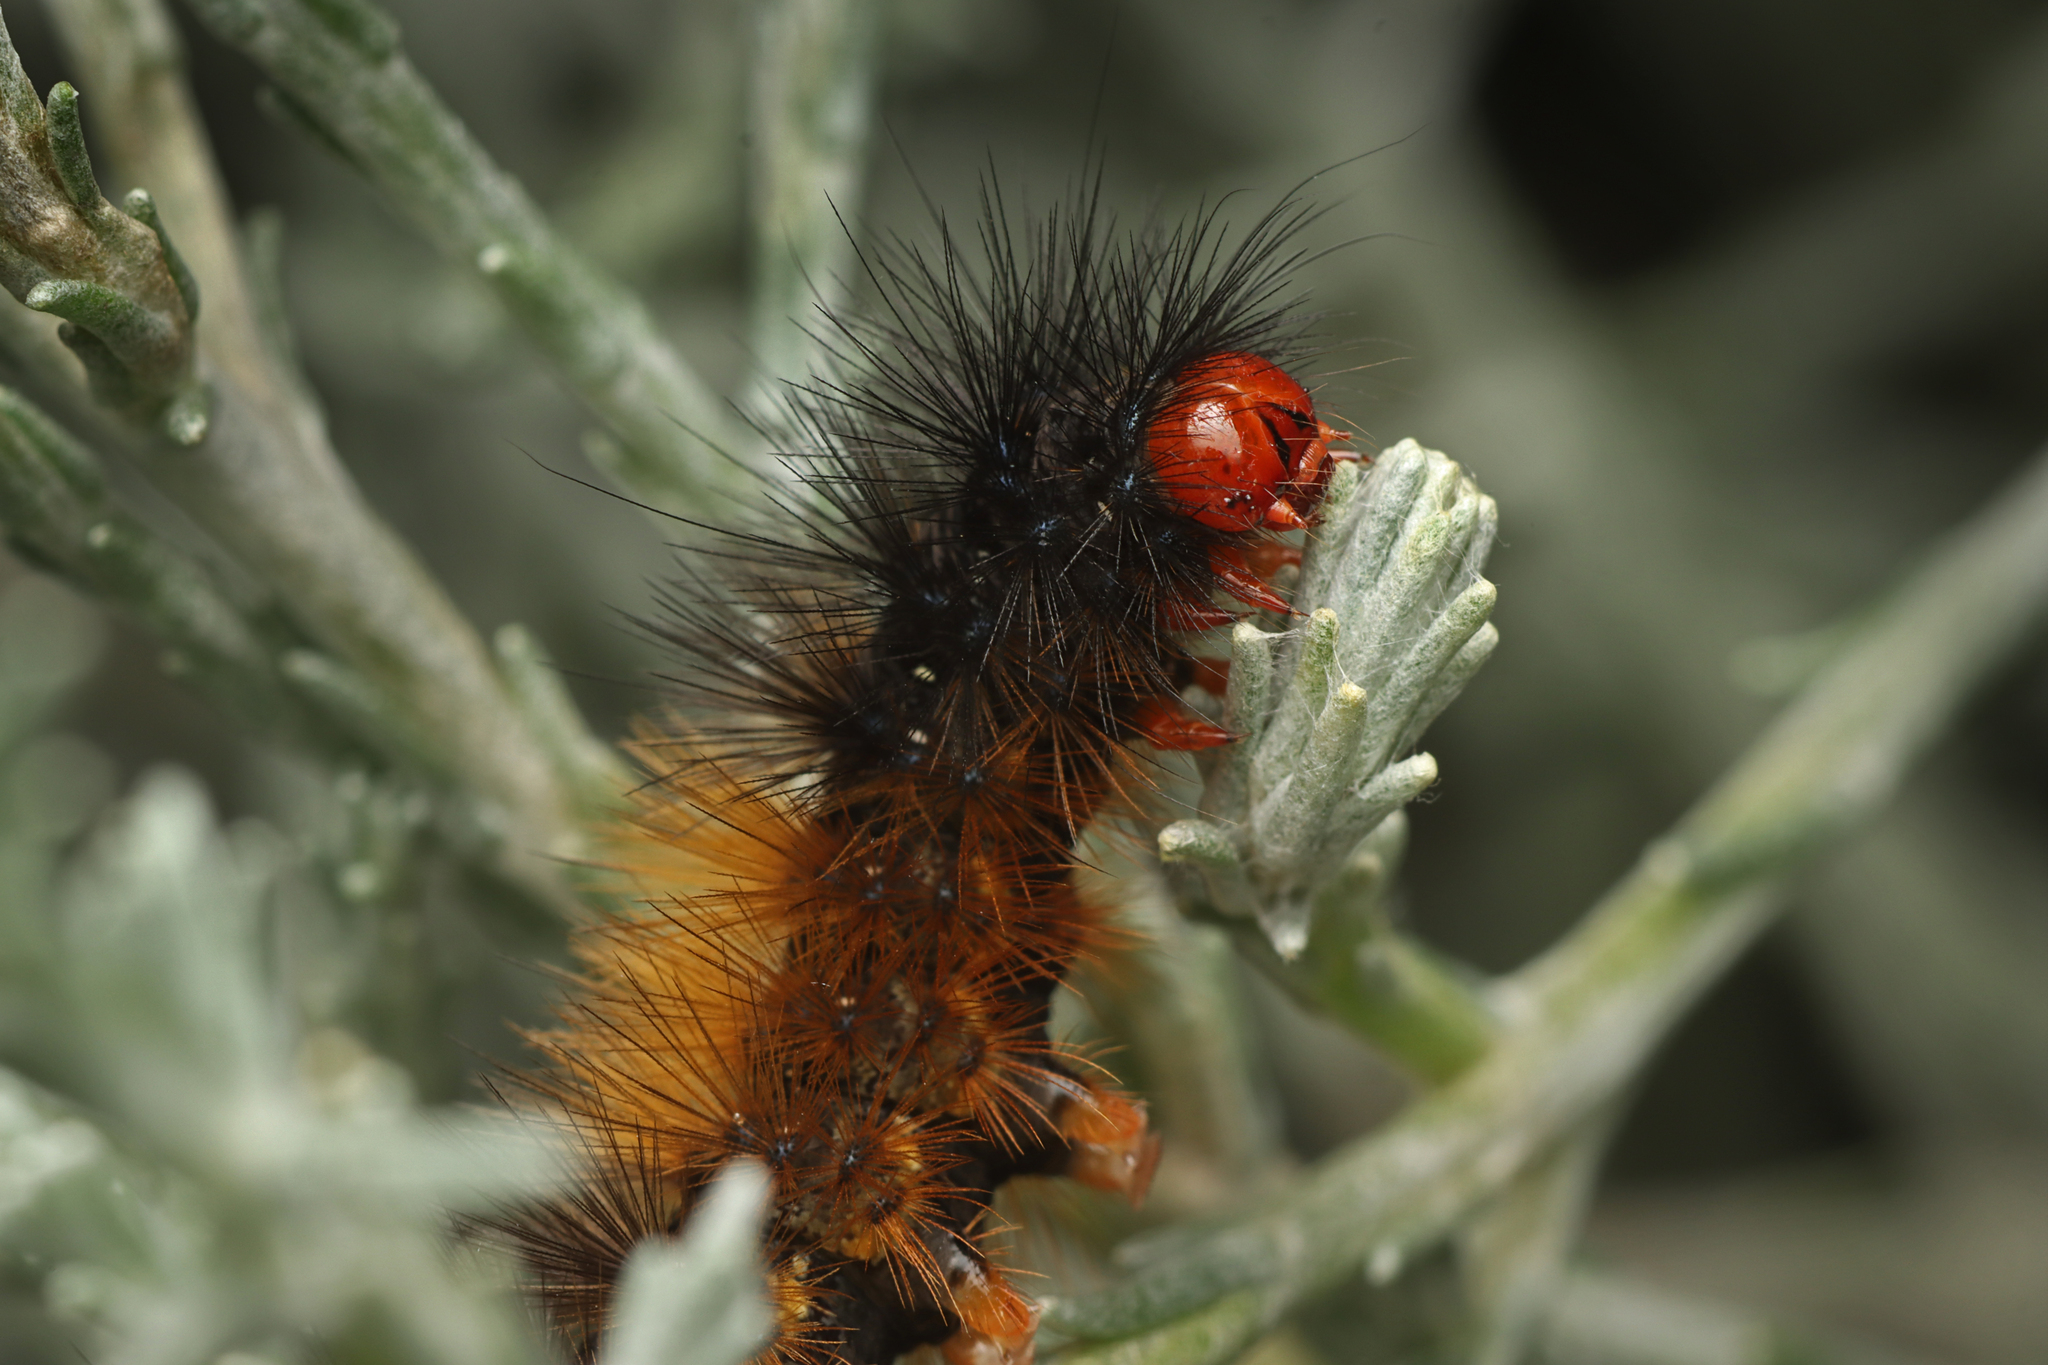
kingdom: Animalia
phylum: Arthropoda
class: Insecta
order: Lepidoptera
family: Erebidae
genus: Ardices
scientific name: Ardices glatignyi
